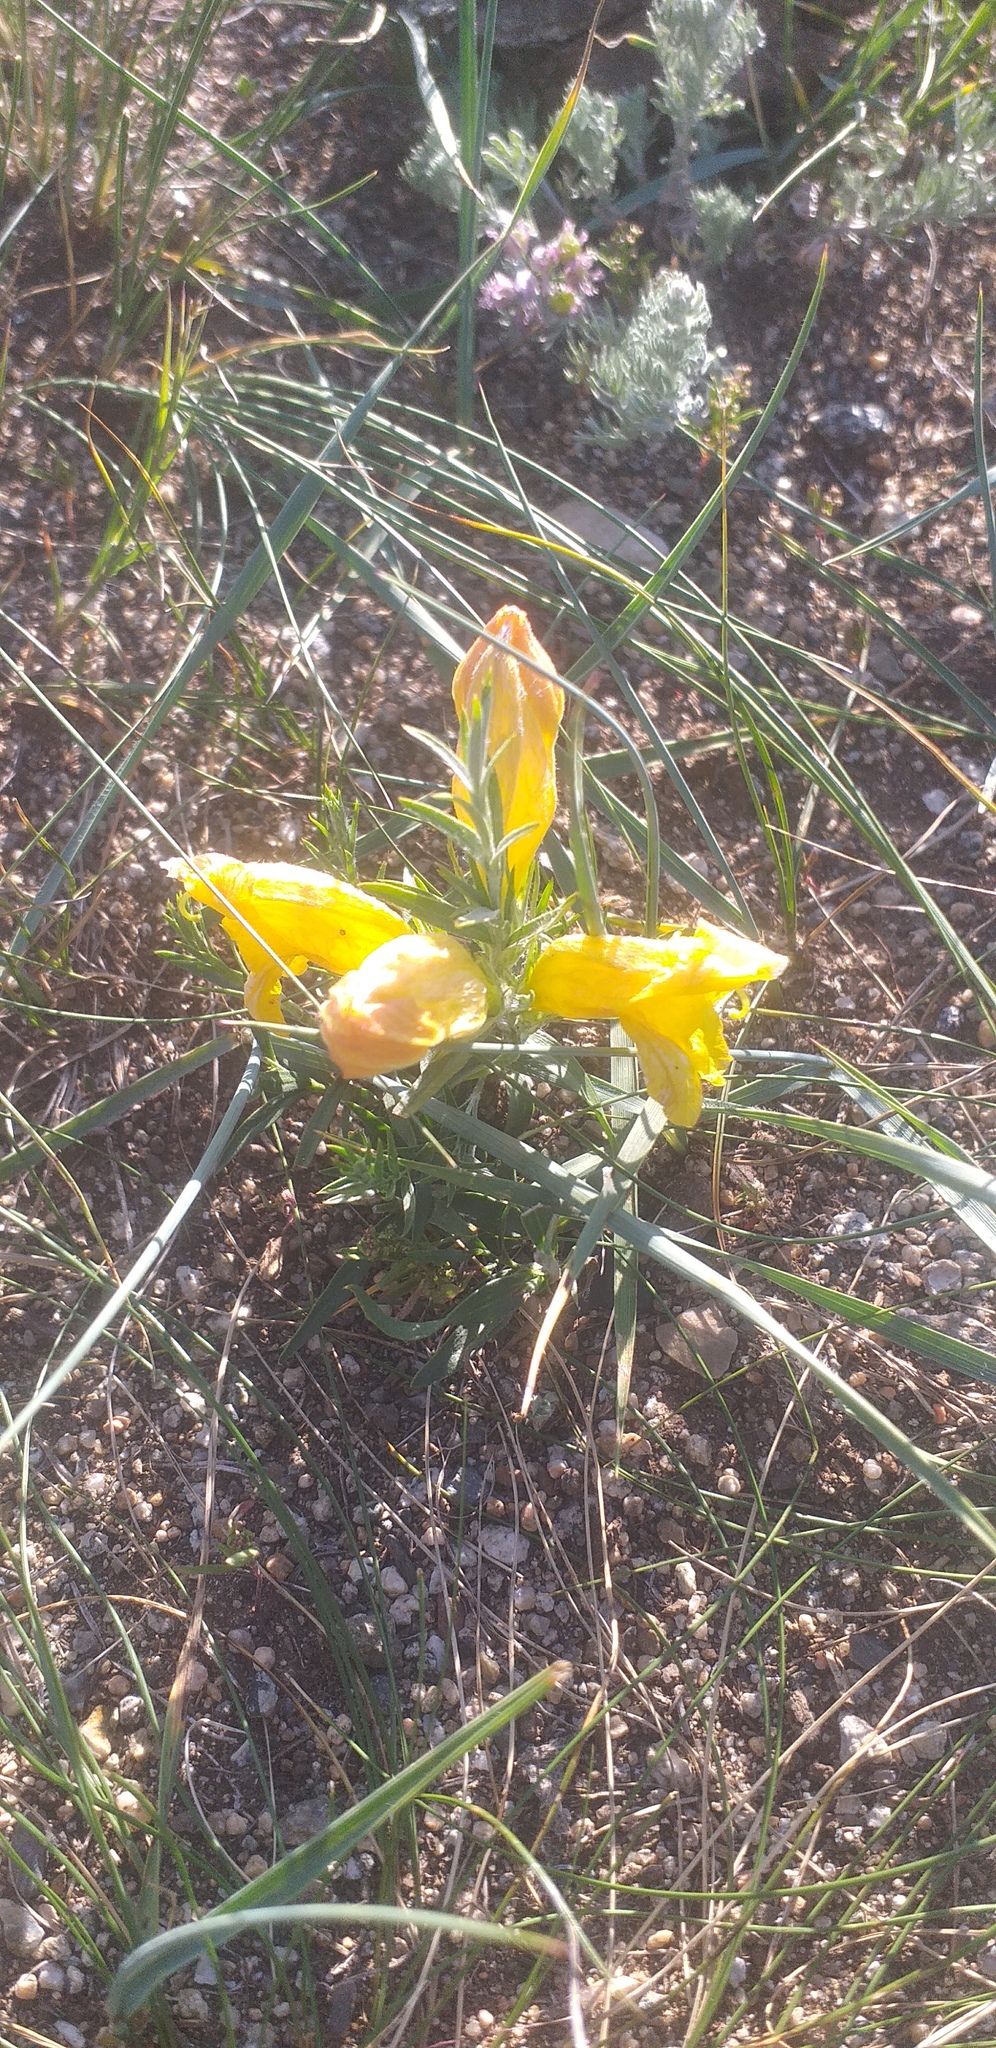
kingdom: Plantae
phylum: Tracheophyta
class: Magnoliopsida
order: Lamiales
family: Orobanchaceae
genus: Cymbaria
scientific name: Cymbaria daurica
